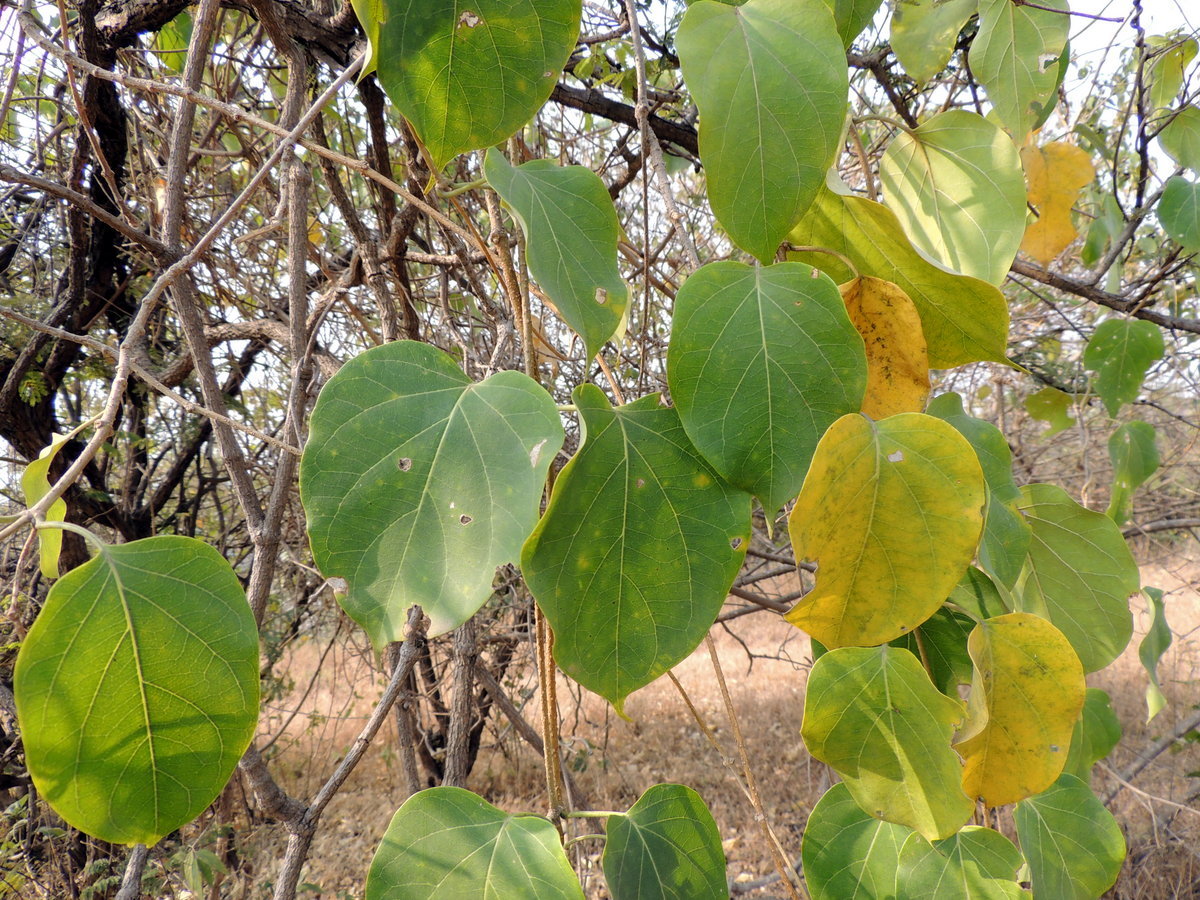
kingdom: Plantae
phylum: Tracheophyta
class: Magnoliopsida
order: Gentianales
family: Apocynaceae
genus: Stephanotis
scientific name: Stephanotis volubilis
